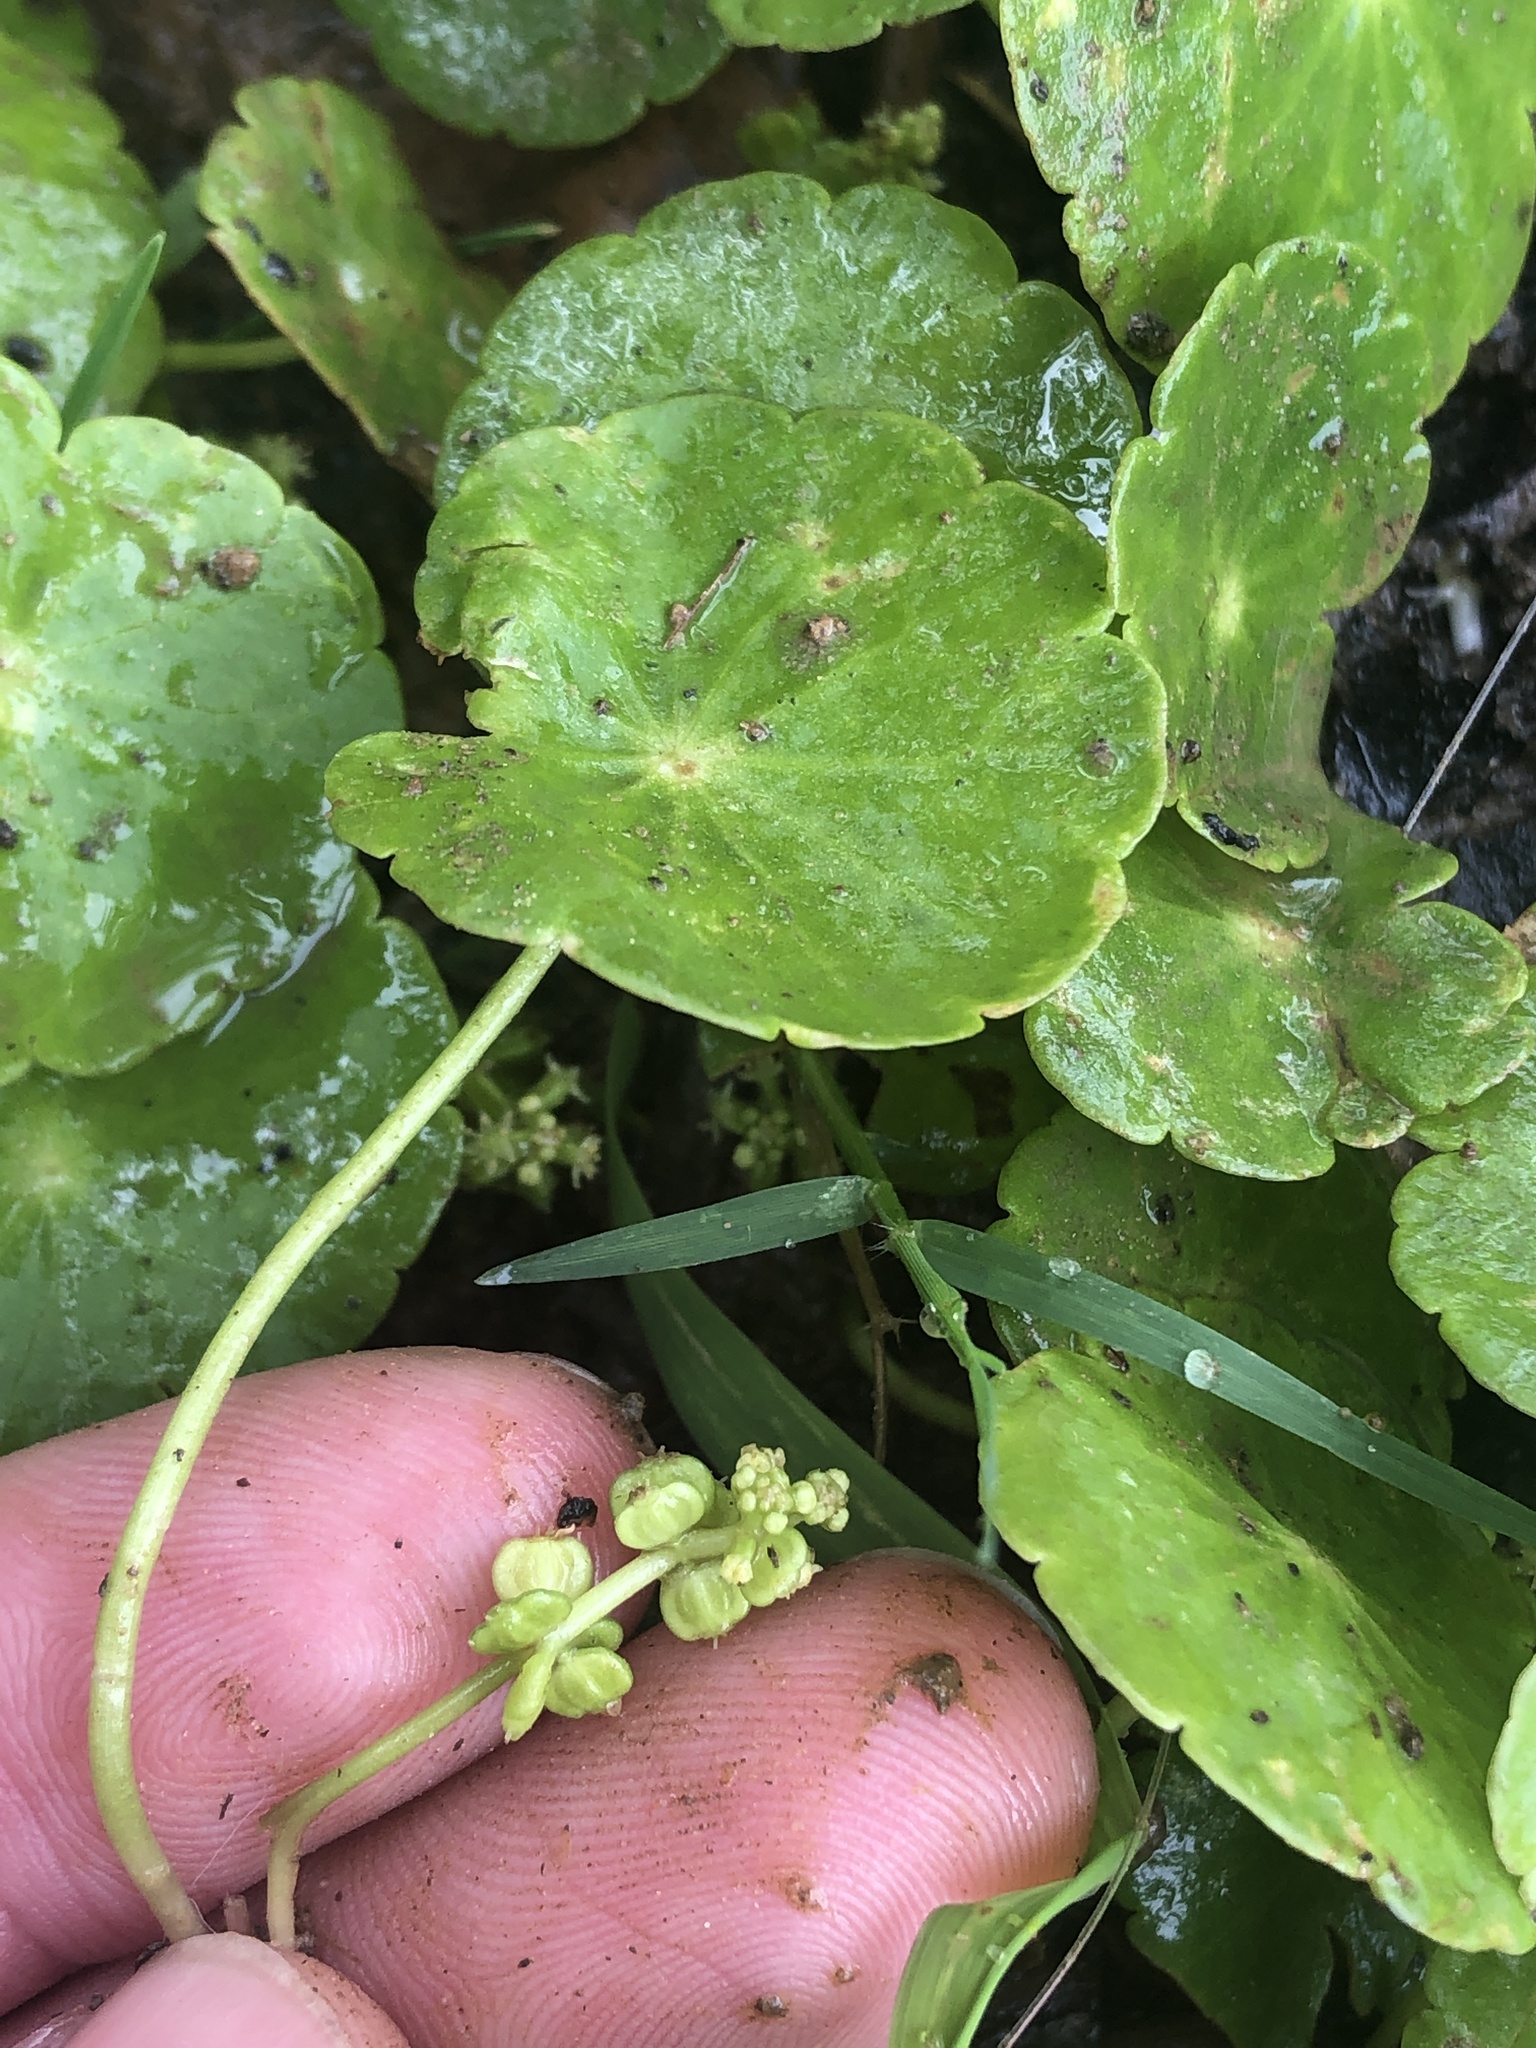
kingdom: Plantae
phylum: Tracheophyta
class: Magnoliopsida
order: Apiales
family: Araliaceae
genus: Hydrocotyle
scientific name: Hydrocotyle verticillata
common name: Whorled marshpennywort
